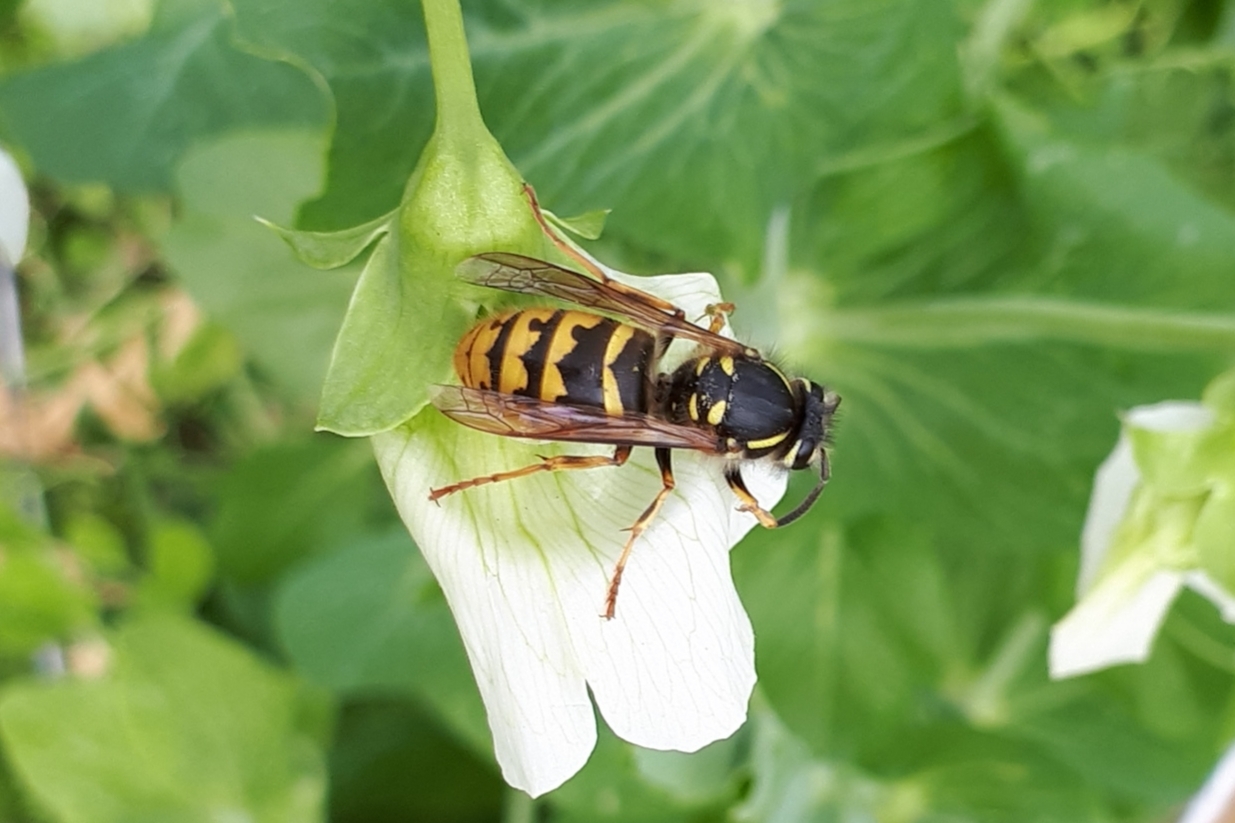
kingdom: Animalia
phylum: Arthropoda
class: Insecta
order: Hymenoptera
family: Vespidae
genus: Vespula
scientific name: Vespula vulgaris
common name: Common wasp
